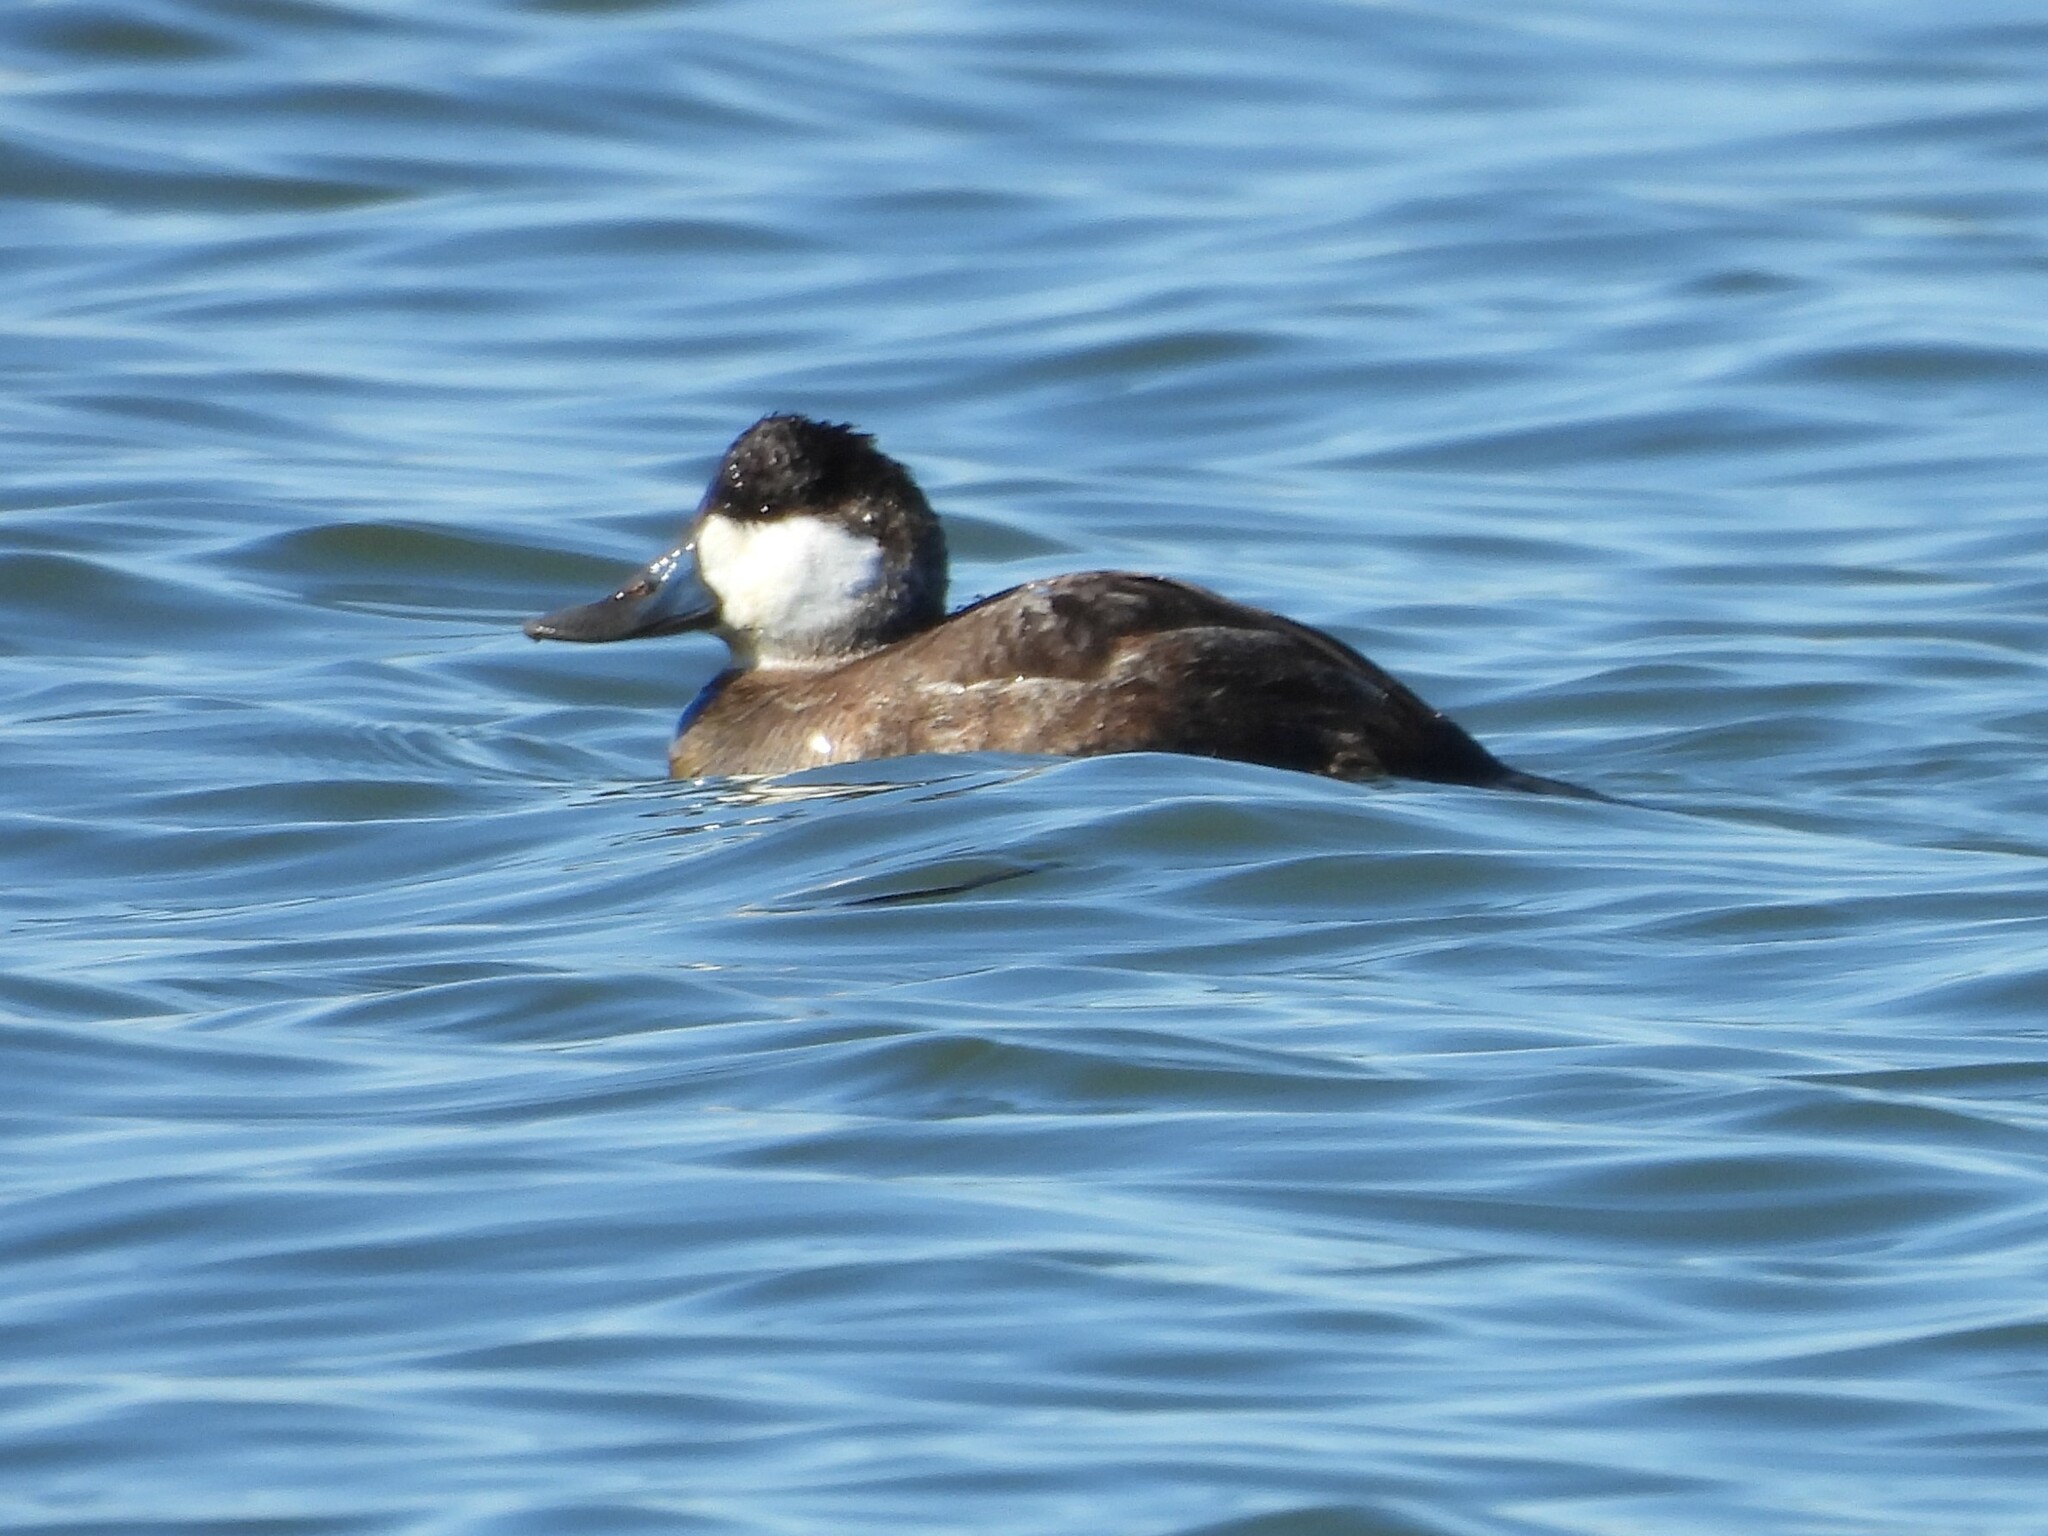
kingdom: Animalia
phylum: Chordata
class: Aves
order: Anseriformes
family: Anatidae
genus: Oxyura
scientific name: Oxyura jamaicensis
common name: Ruddy duck
